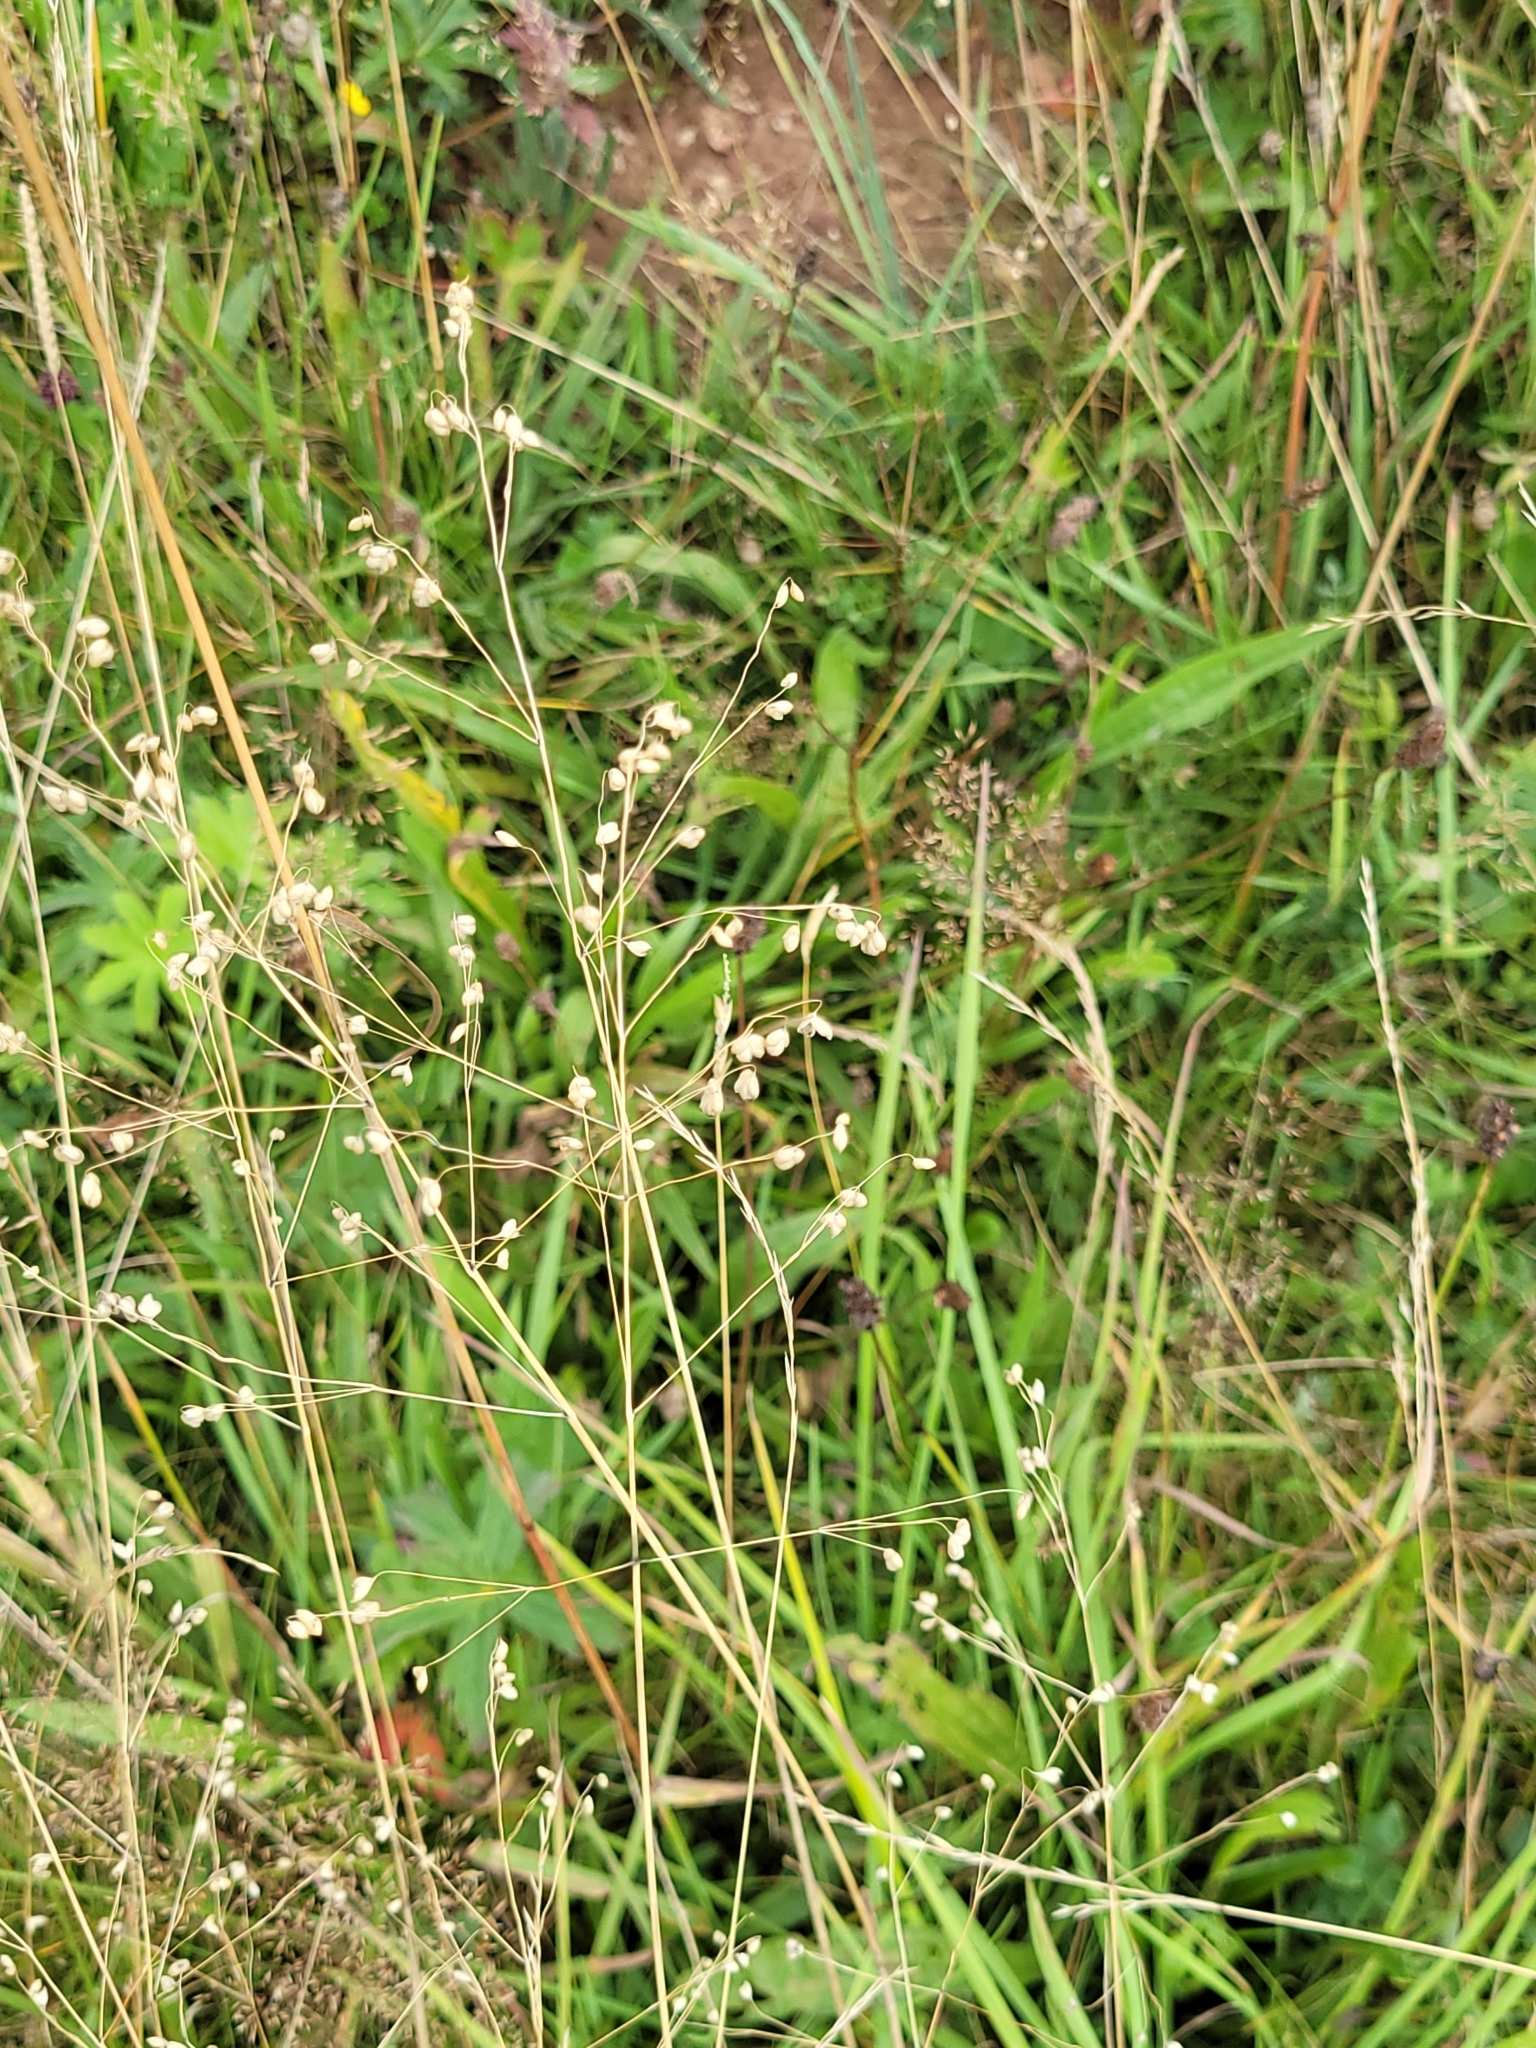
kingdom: Plantae
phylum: Tracheophyta
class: Liliopsida
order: Poales
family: Poaceae
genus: Briza
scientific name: Briza media
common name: Quaking grass
